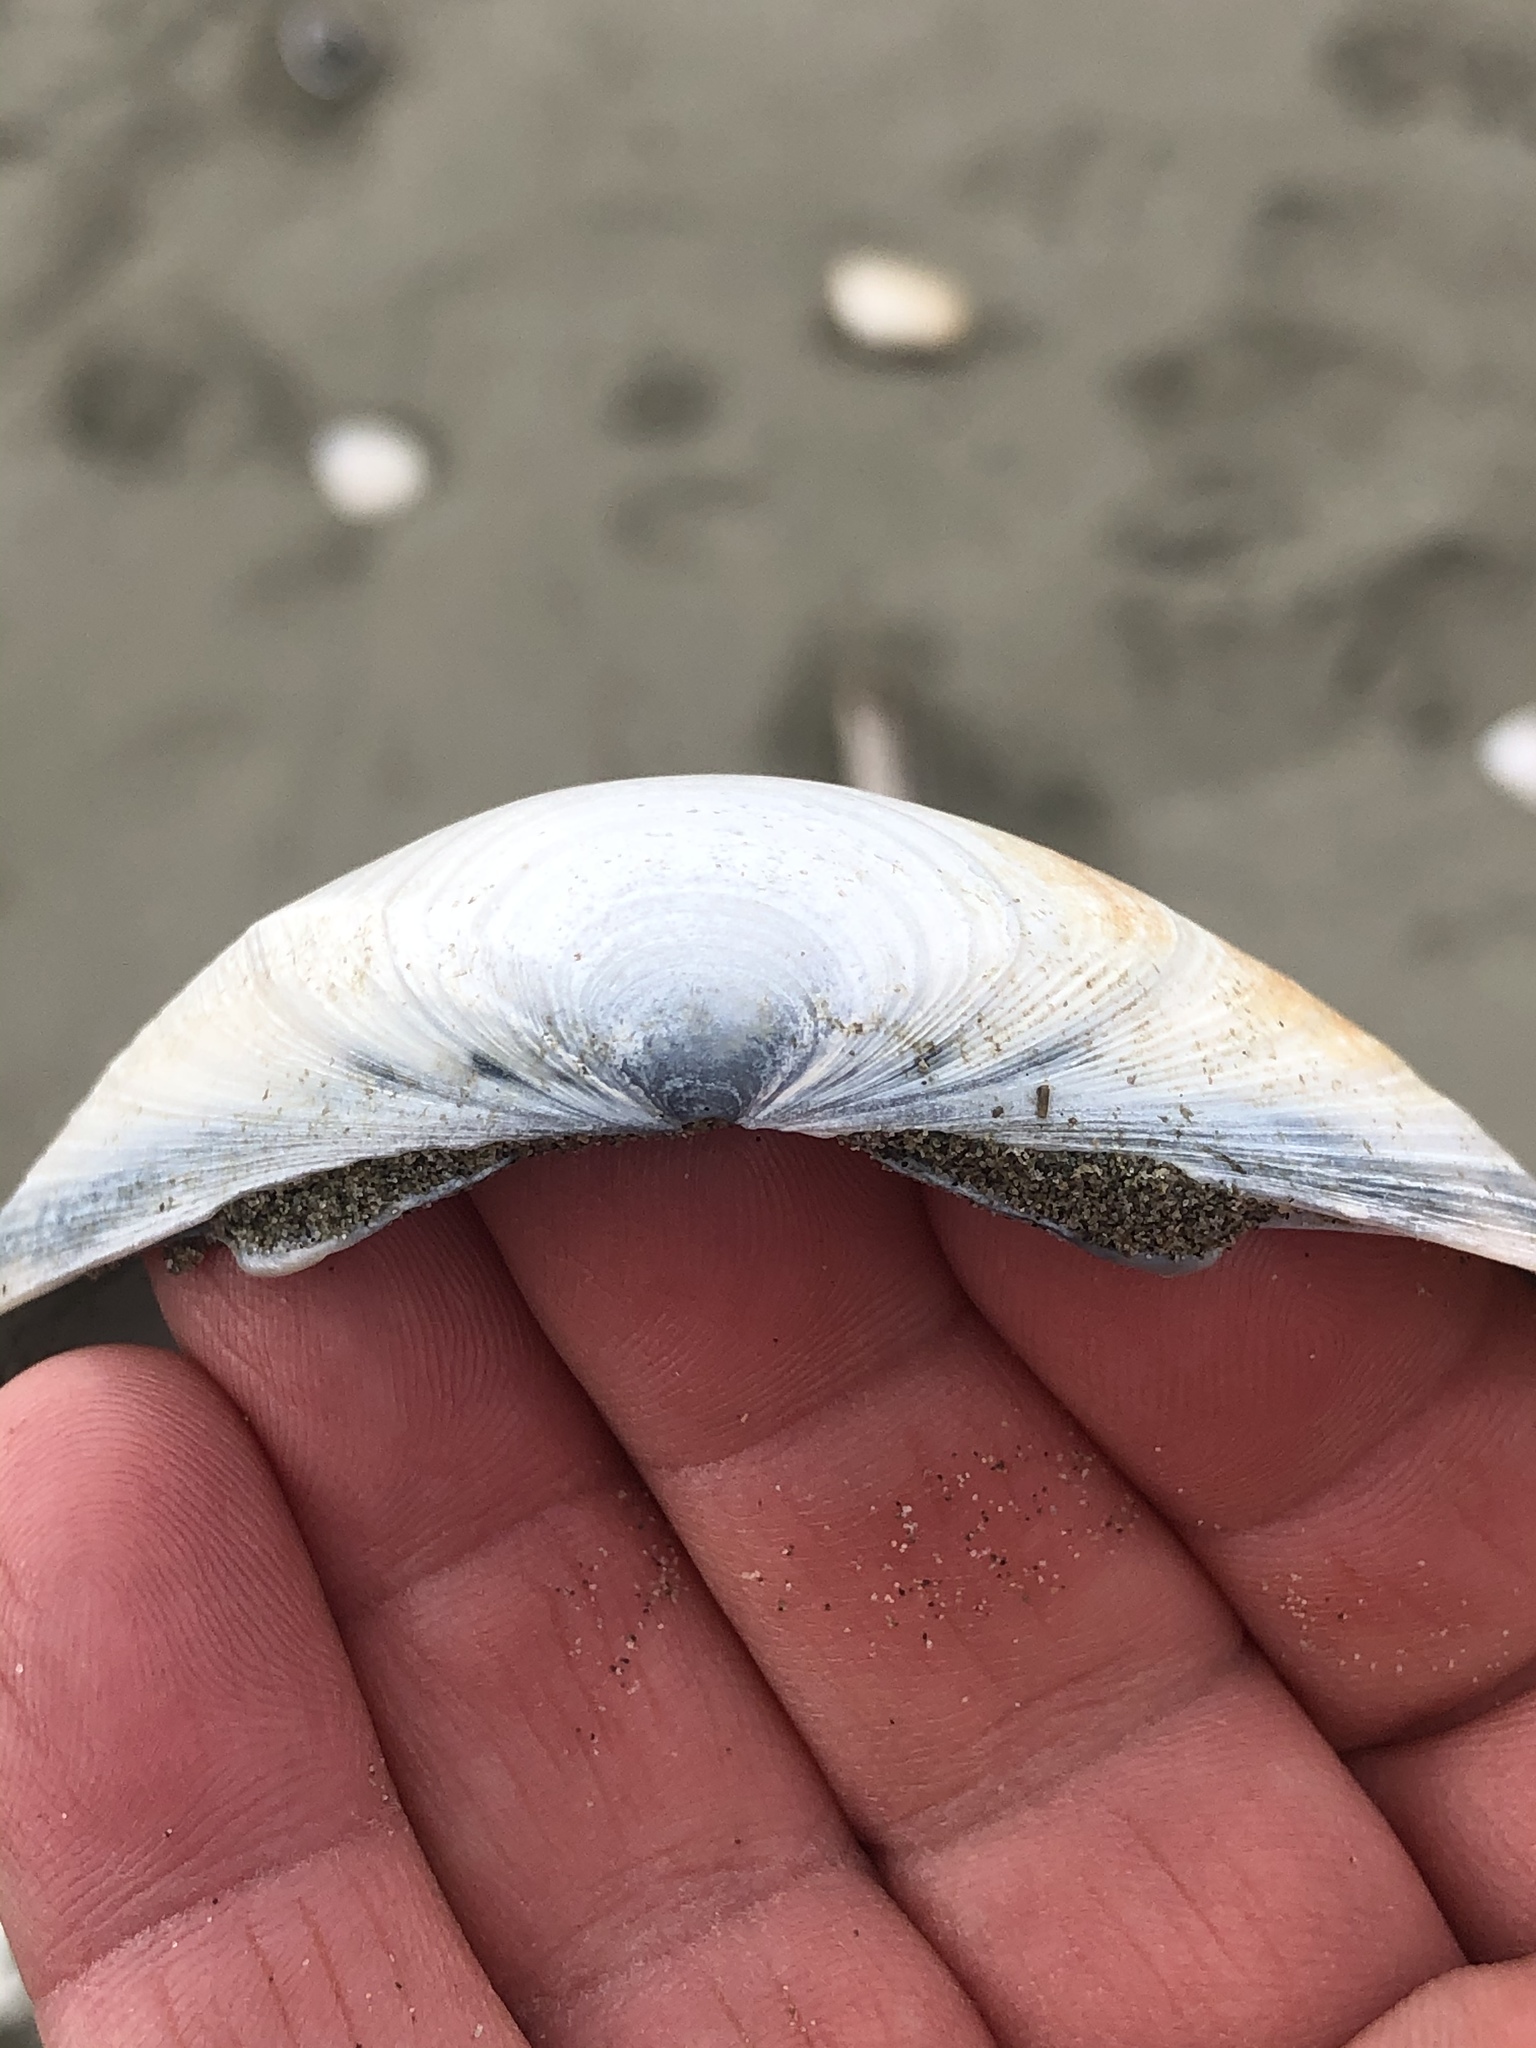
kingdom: Animalia
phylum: Mollusca
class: Bivalvia
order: Venerida
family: Mactridae
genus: Spisula
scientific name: Spisula murchisoni
